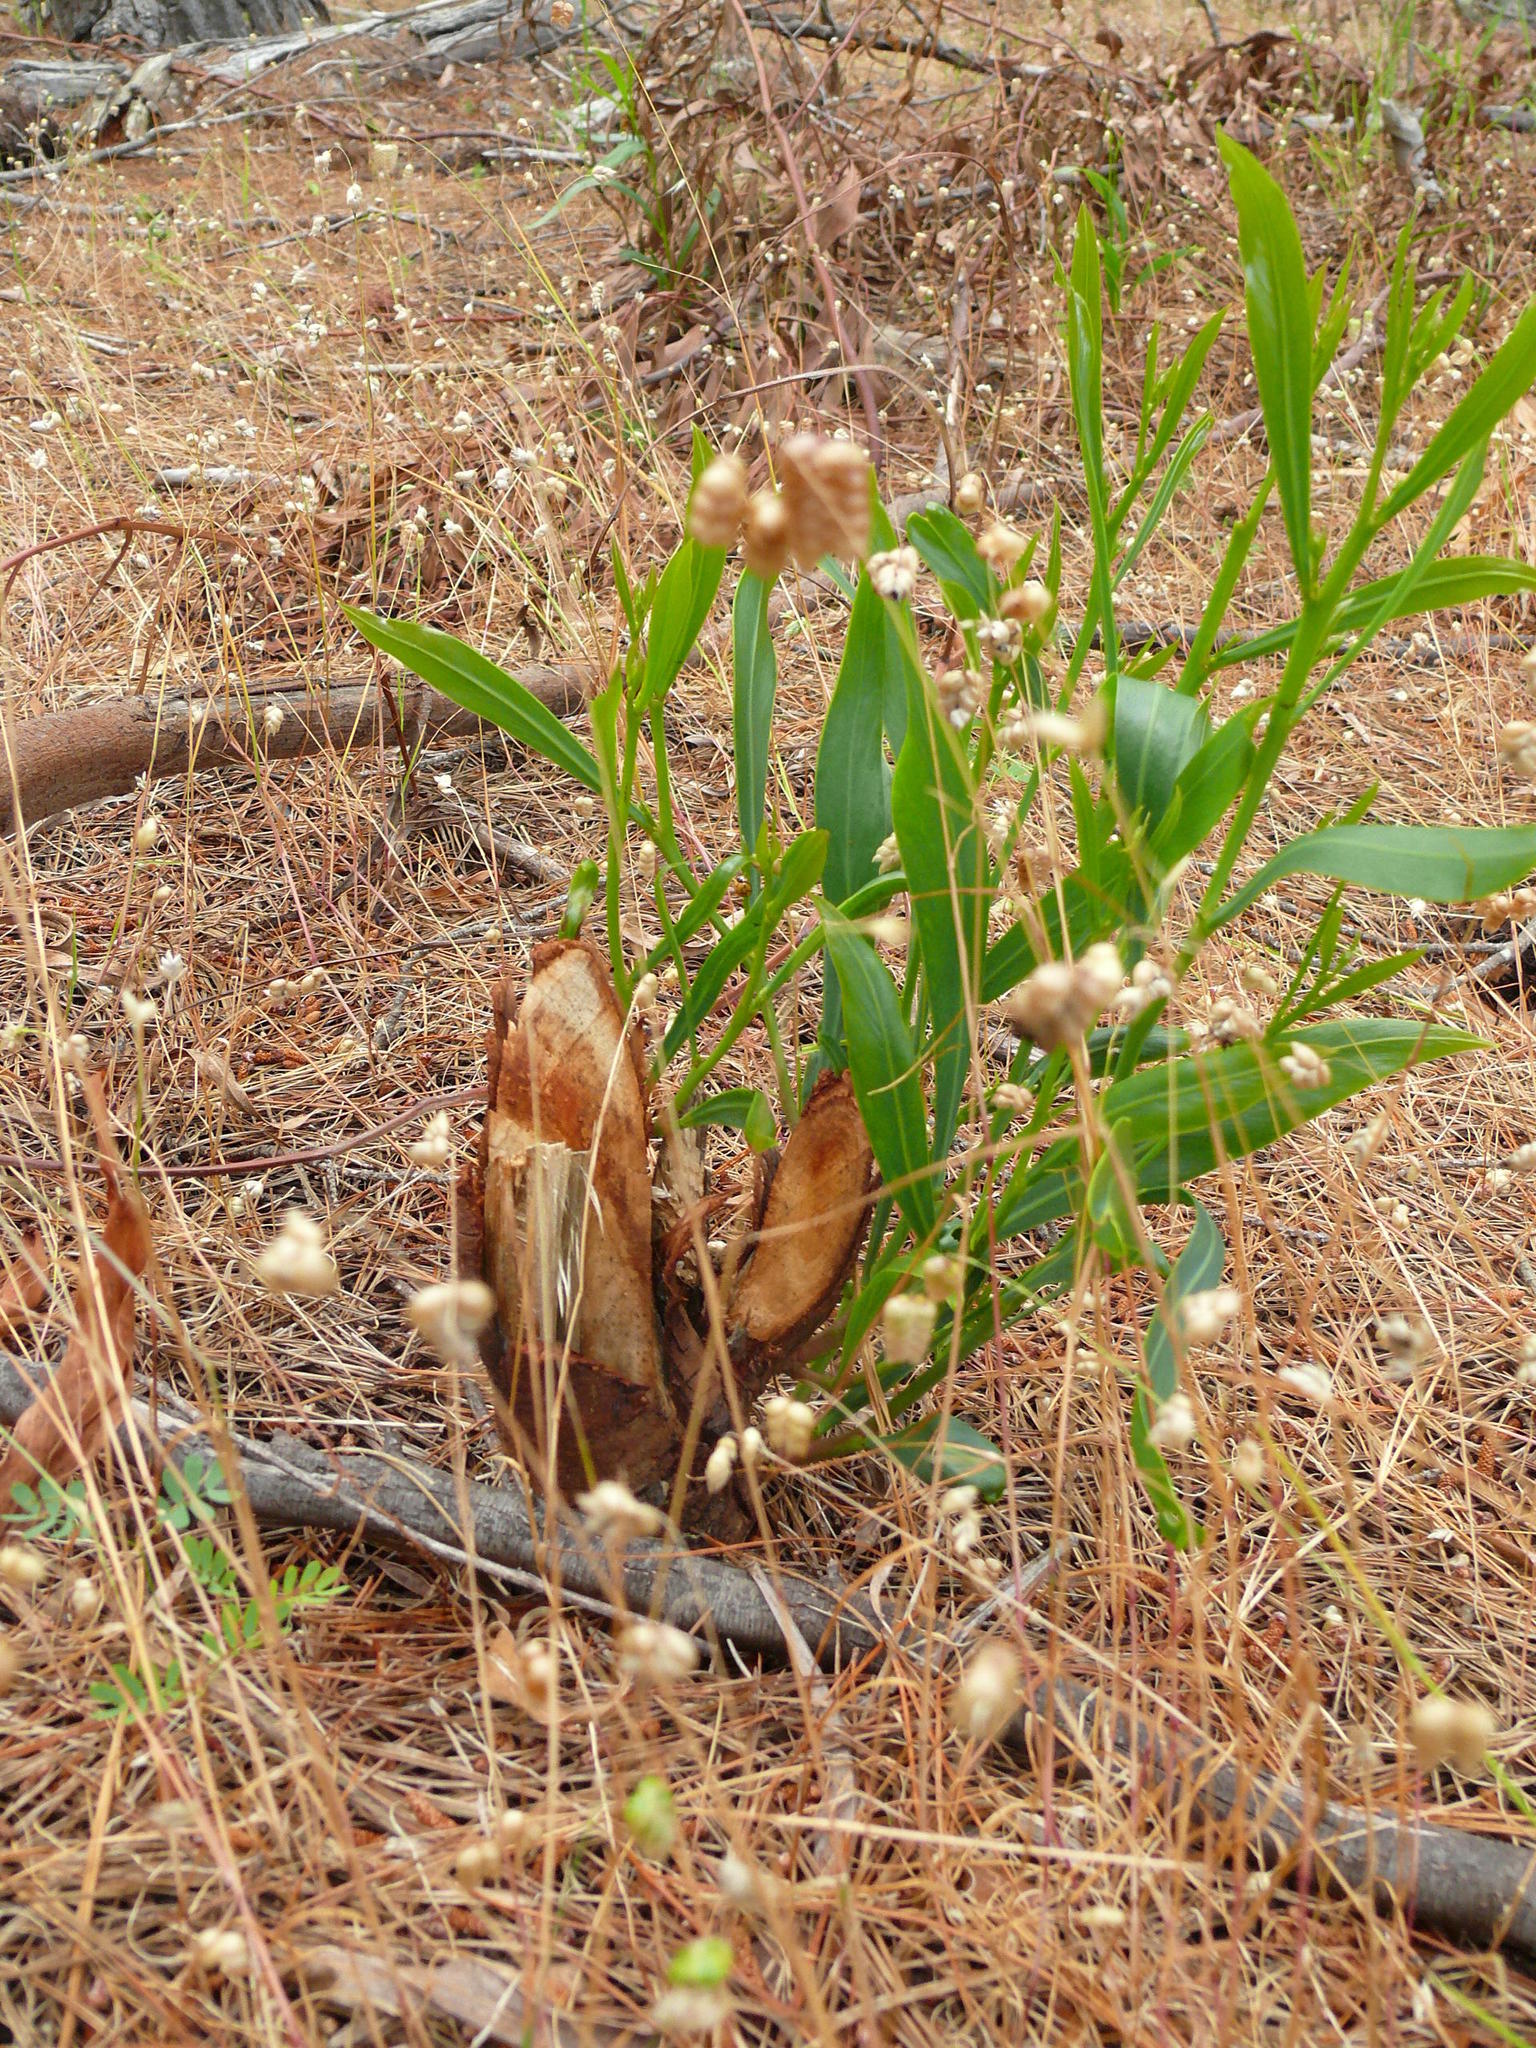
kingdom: Plantae
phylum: Tracheophyta
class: Magnoliopsida
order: Fabales
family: Fabaceae
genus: Acacia
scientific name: Acacia saligna
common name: Orange wattle
